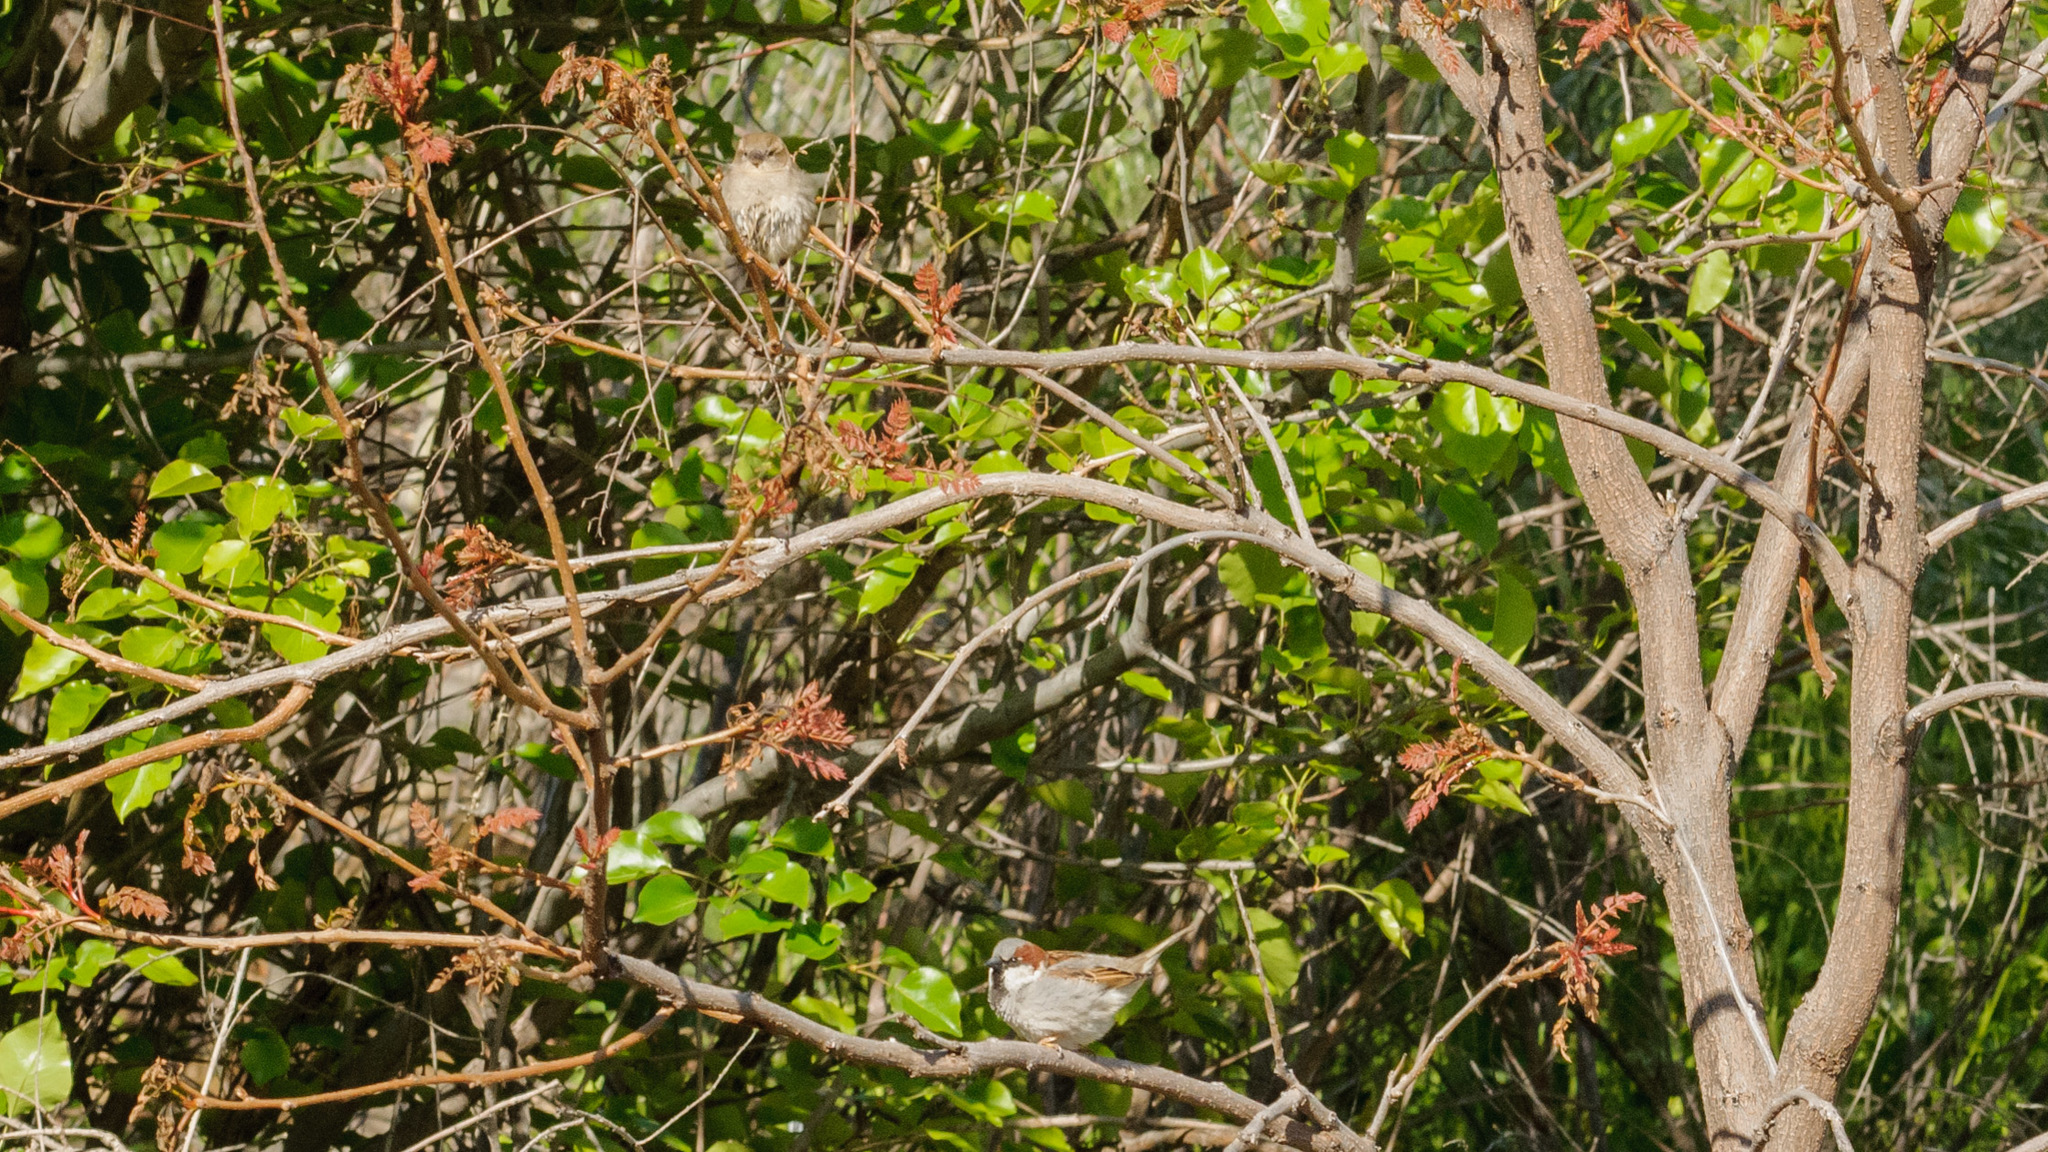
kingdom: Animalia
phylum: Chordata
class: Aves
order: Passeriformes
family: Passeridae
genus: Passer
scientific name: Passer domesticus
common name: House sparrow
